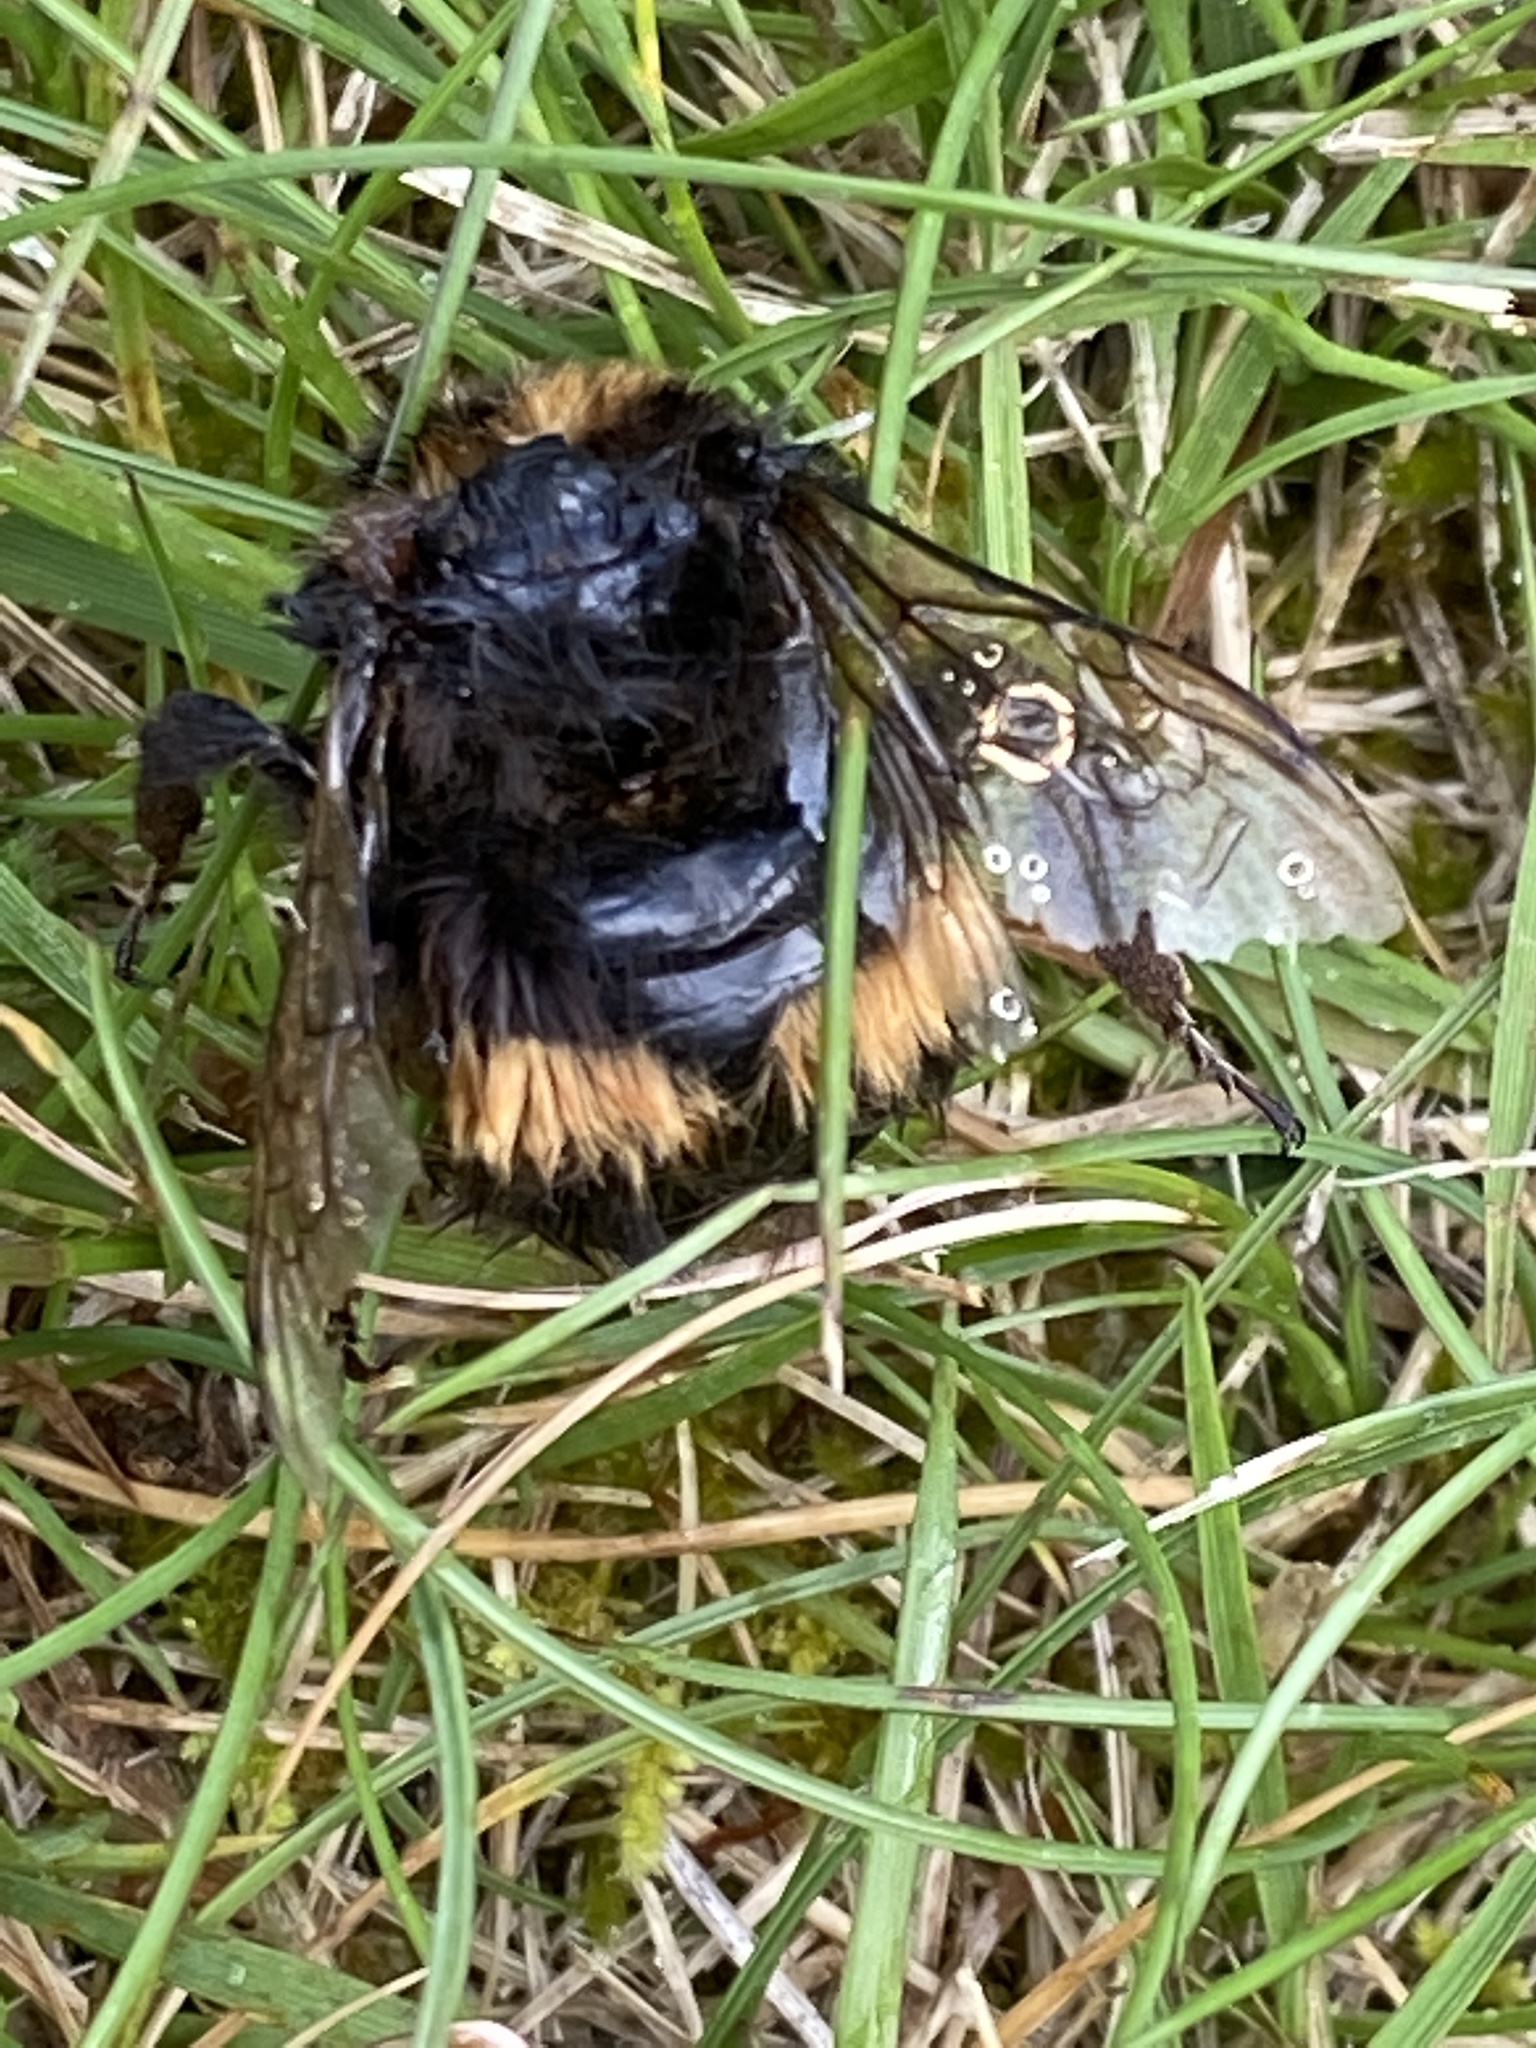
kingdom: Animalia
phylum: Arthropoda
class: Insecta
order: Hymenoptera
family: Apidae
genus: Bombus
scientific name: Bombus terrestris
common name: Buff-tailed bumblebee
